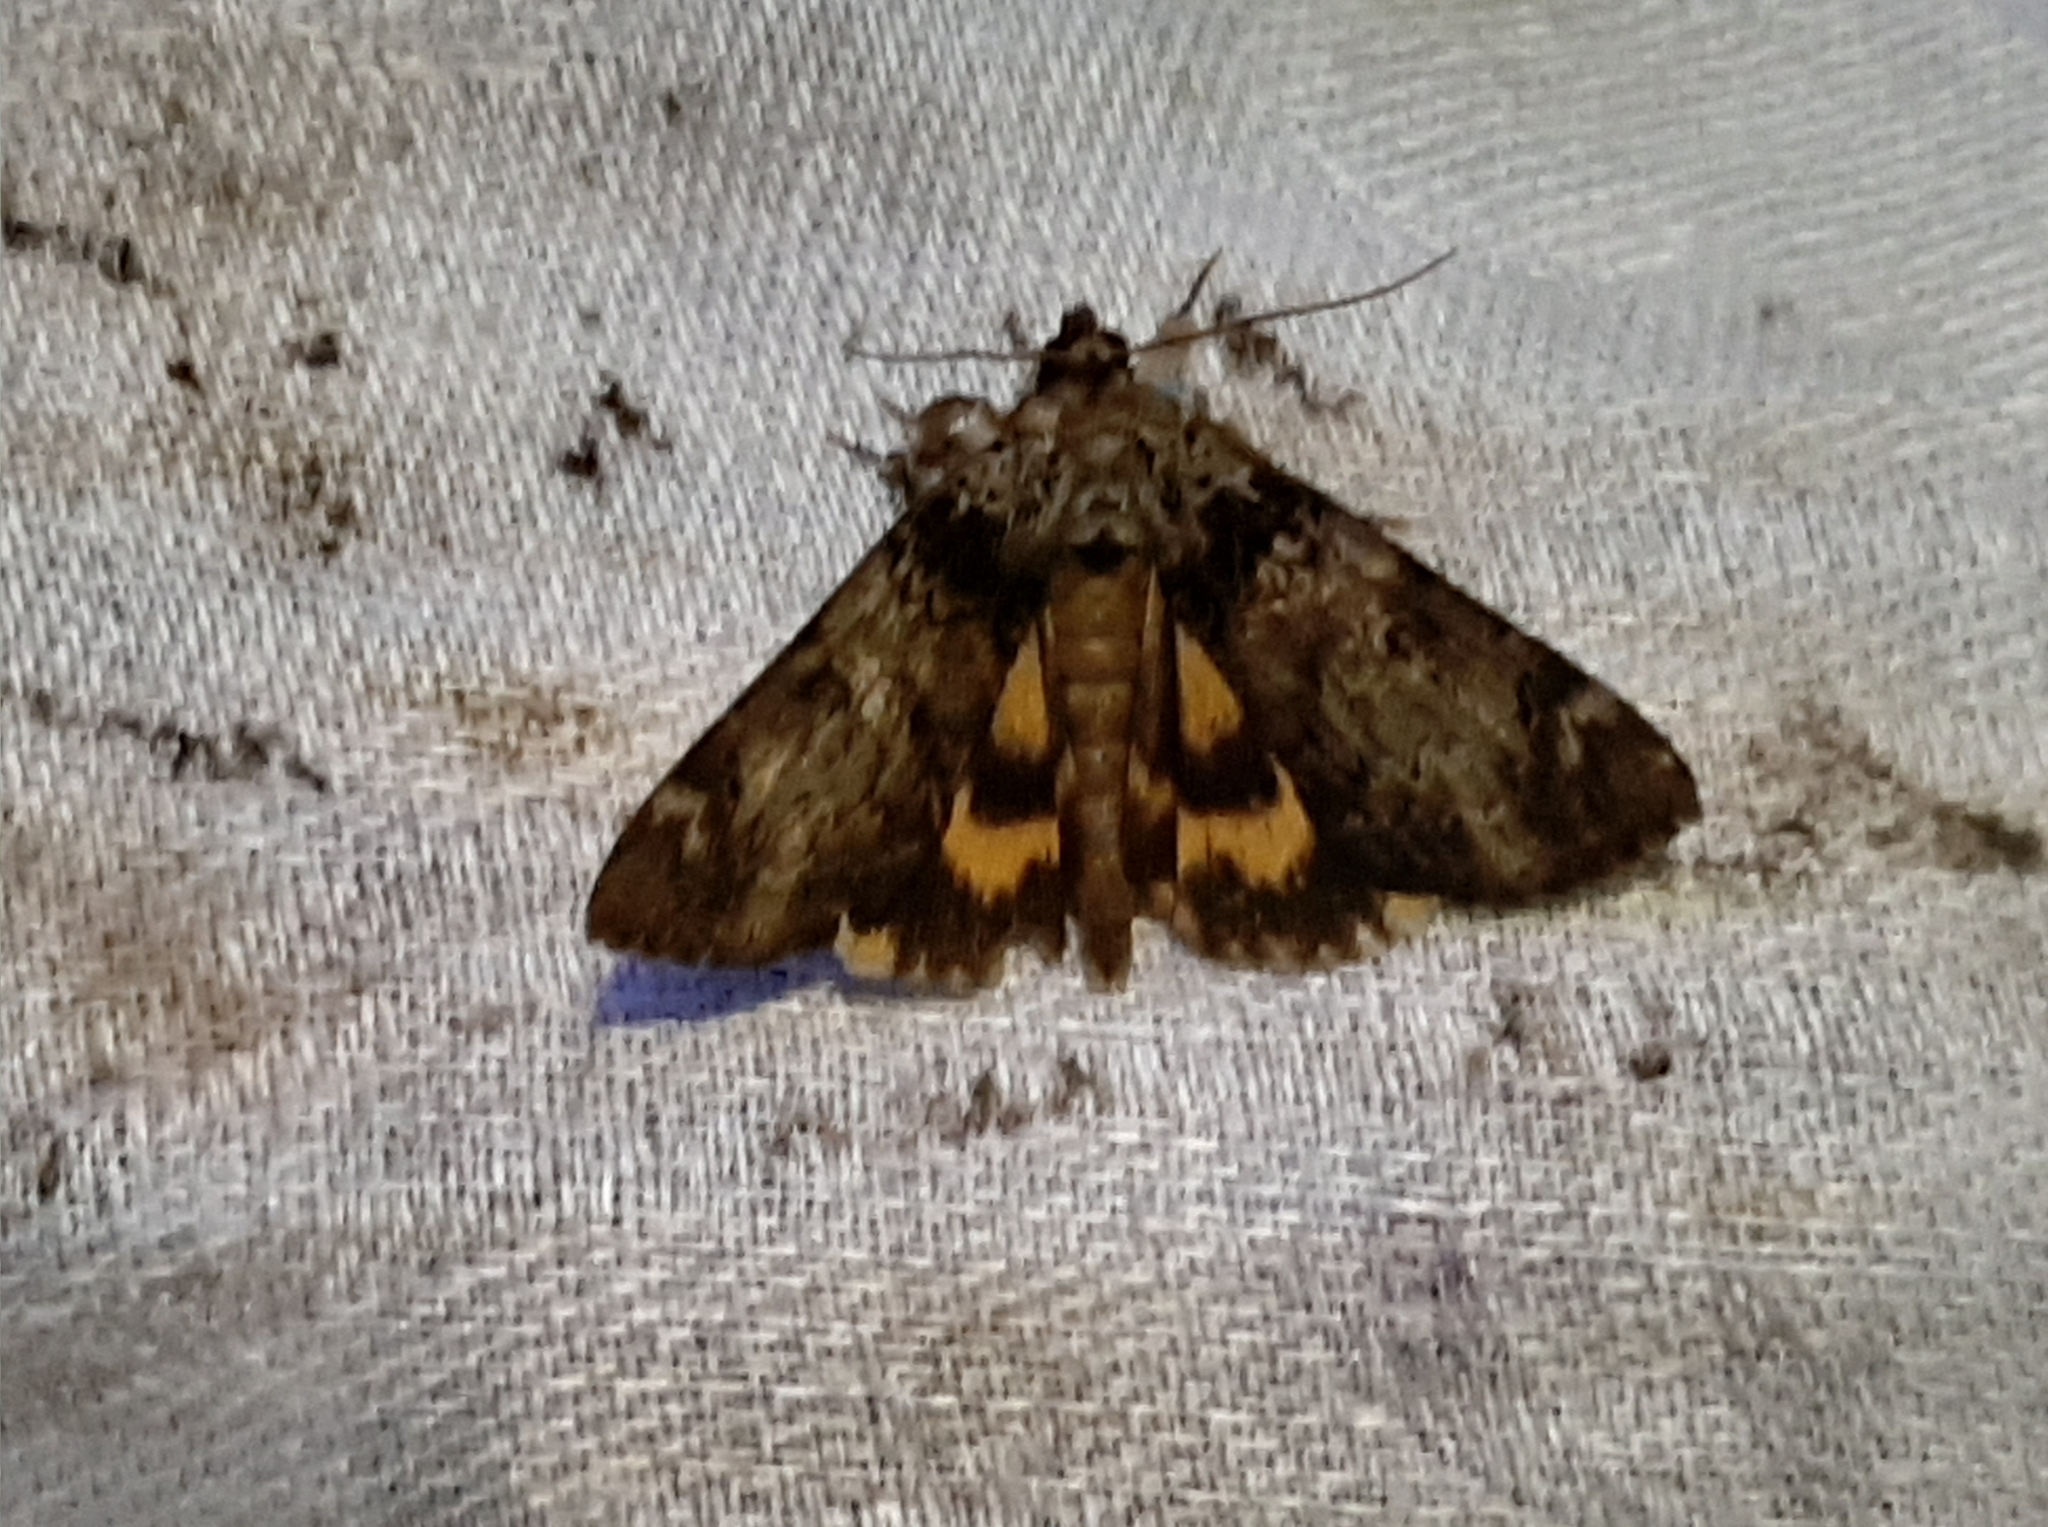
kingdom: Animalia
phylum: Arthropoda
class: Insecta
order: Lepidoptera
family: Erebidae
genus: Catocala
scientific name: Catocala minuta
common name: Little underwing
